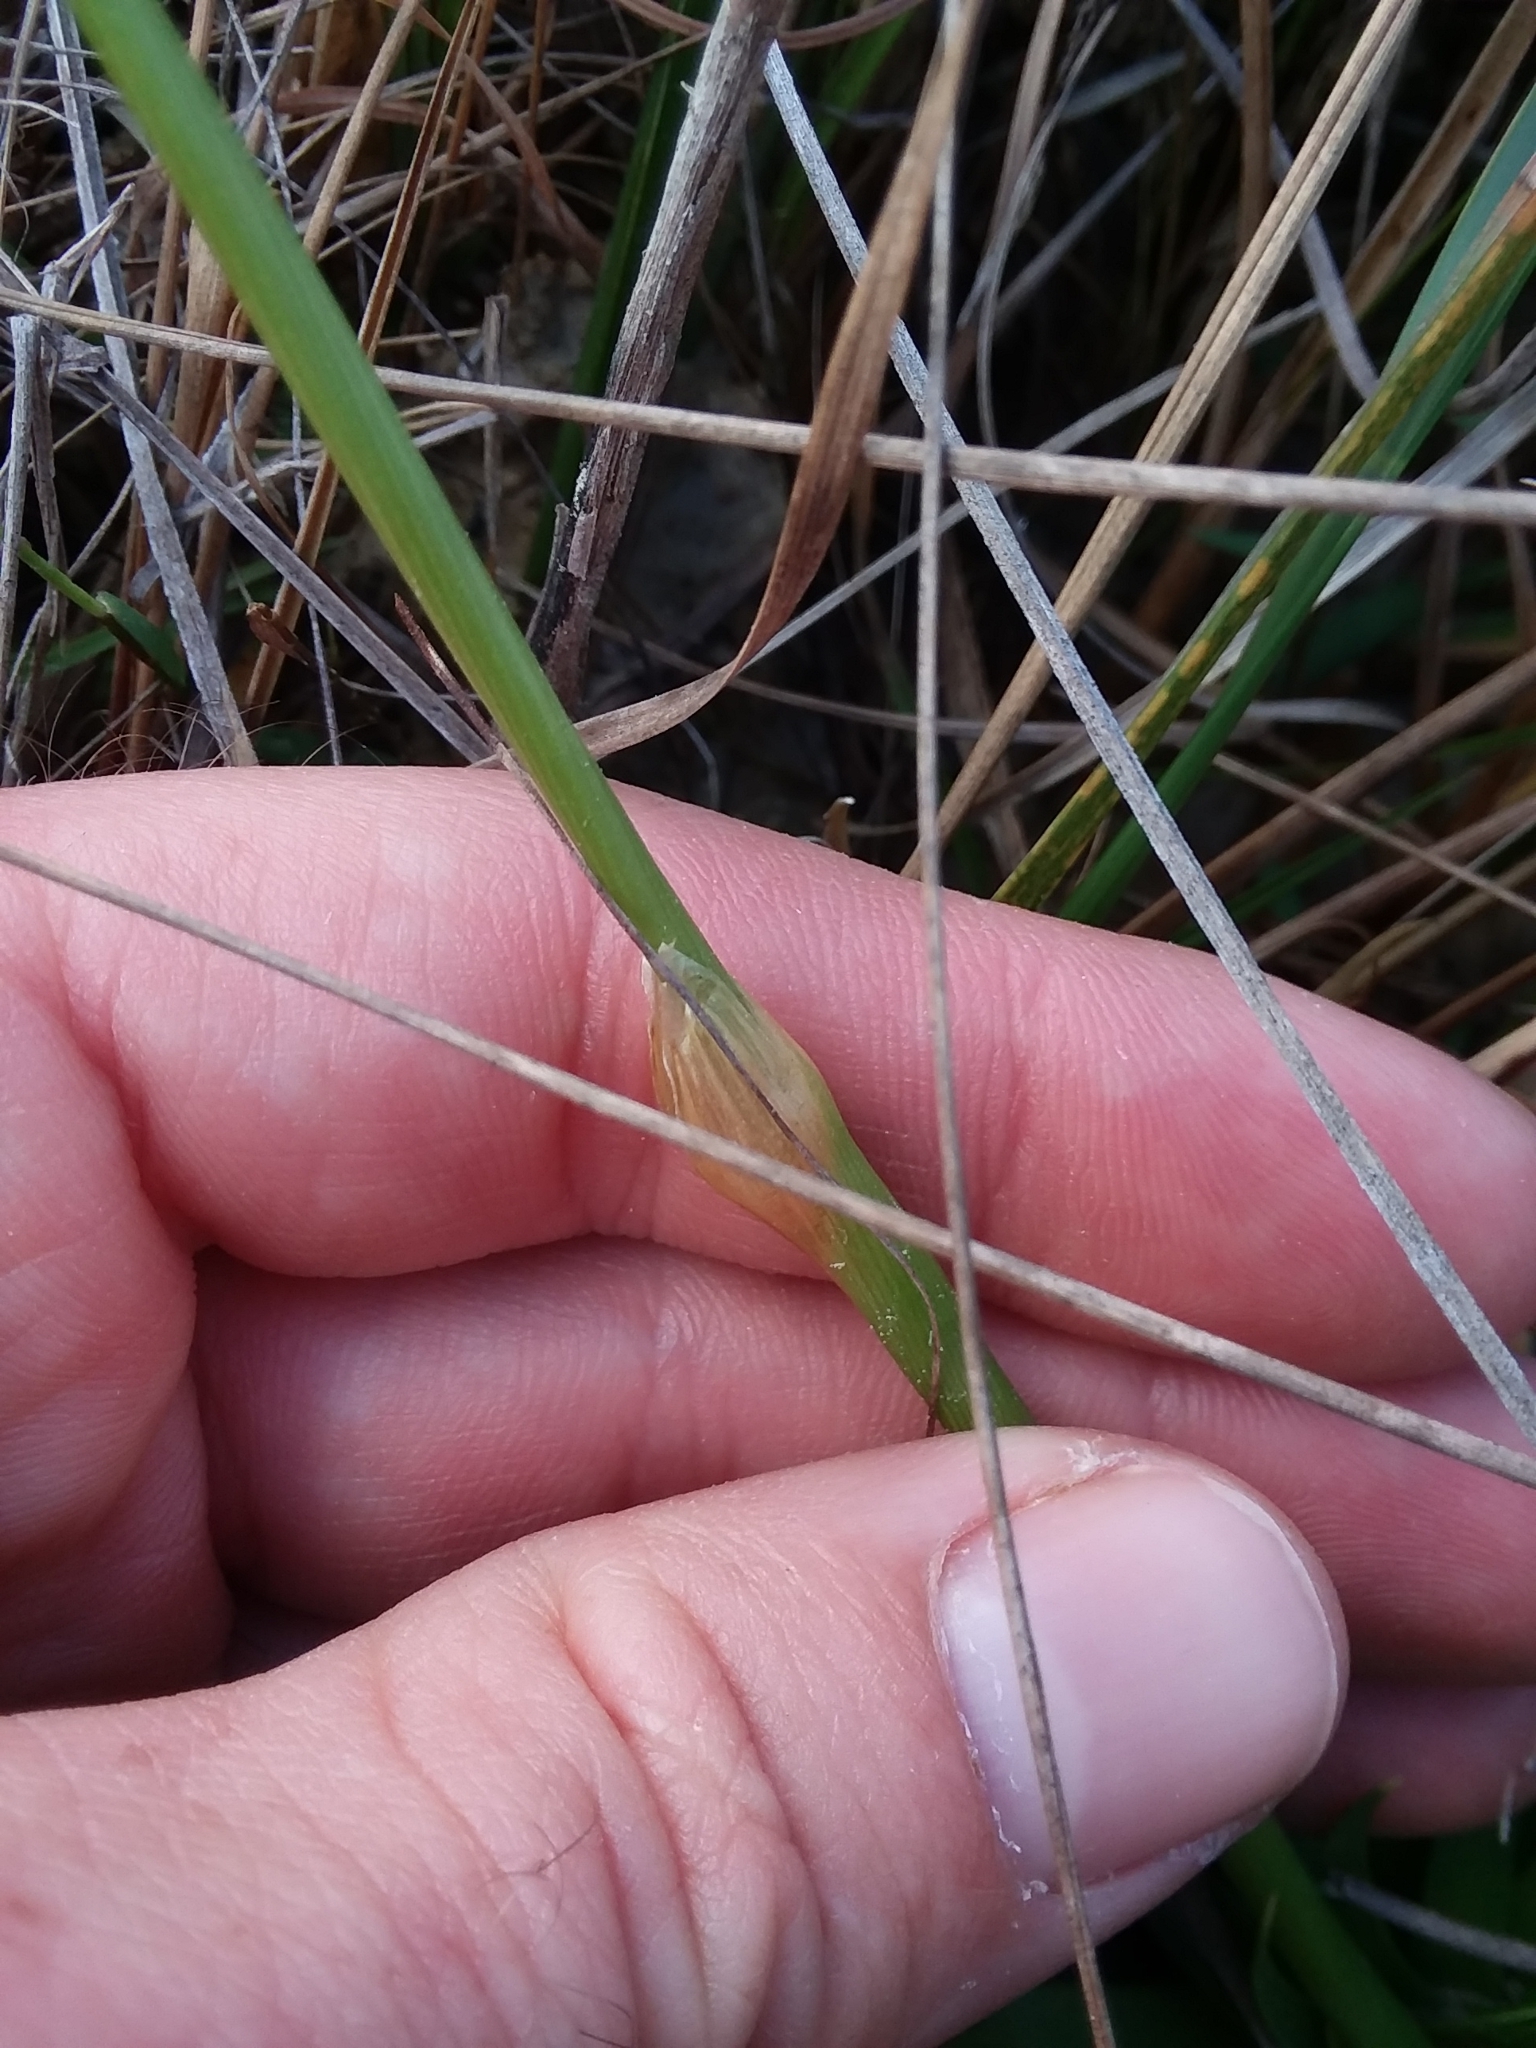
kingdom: Plantae
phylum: Tracheophyta
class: Liliopsida
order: Poales
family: Eriocaulaceae
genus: Eriocaulon
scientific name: Eriocaulon compressum
